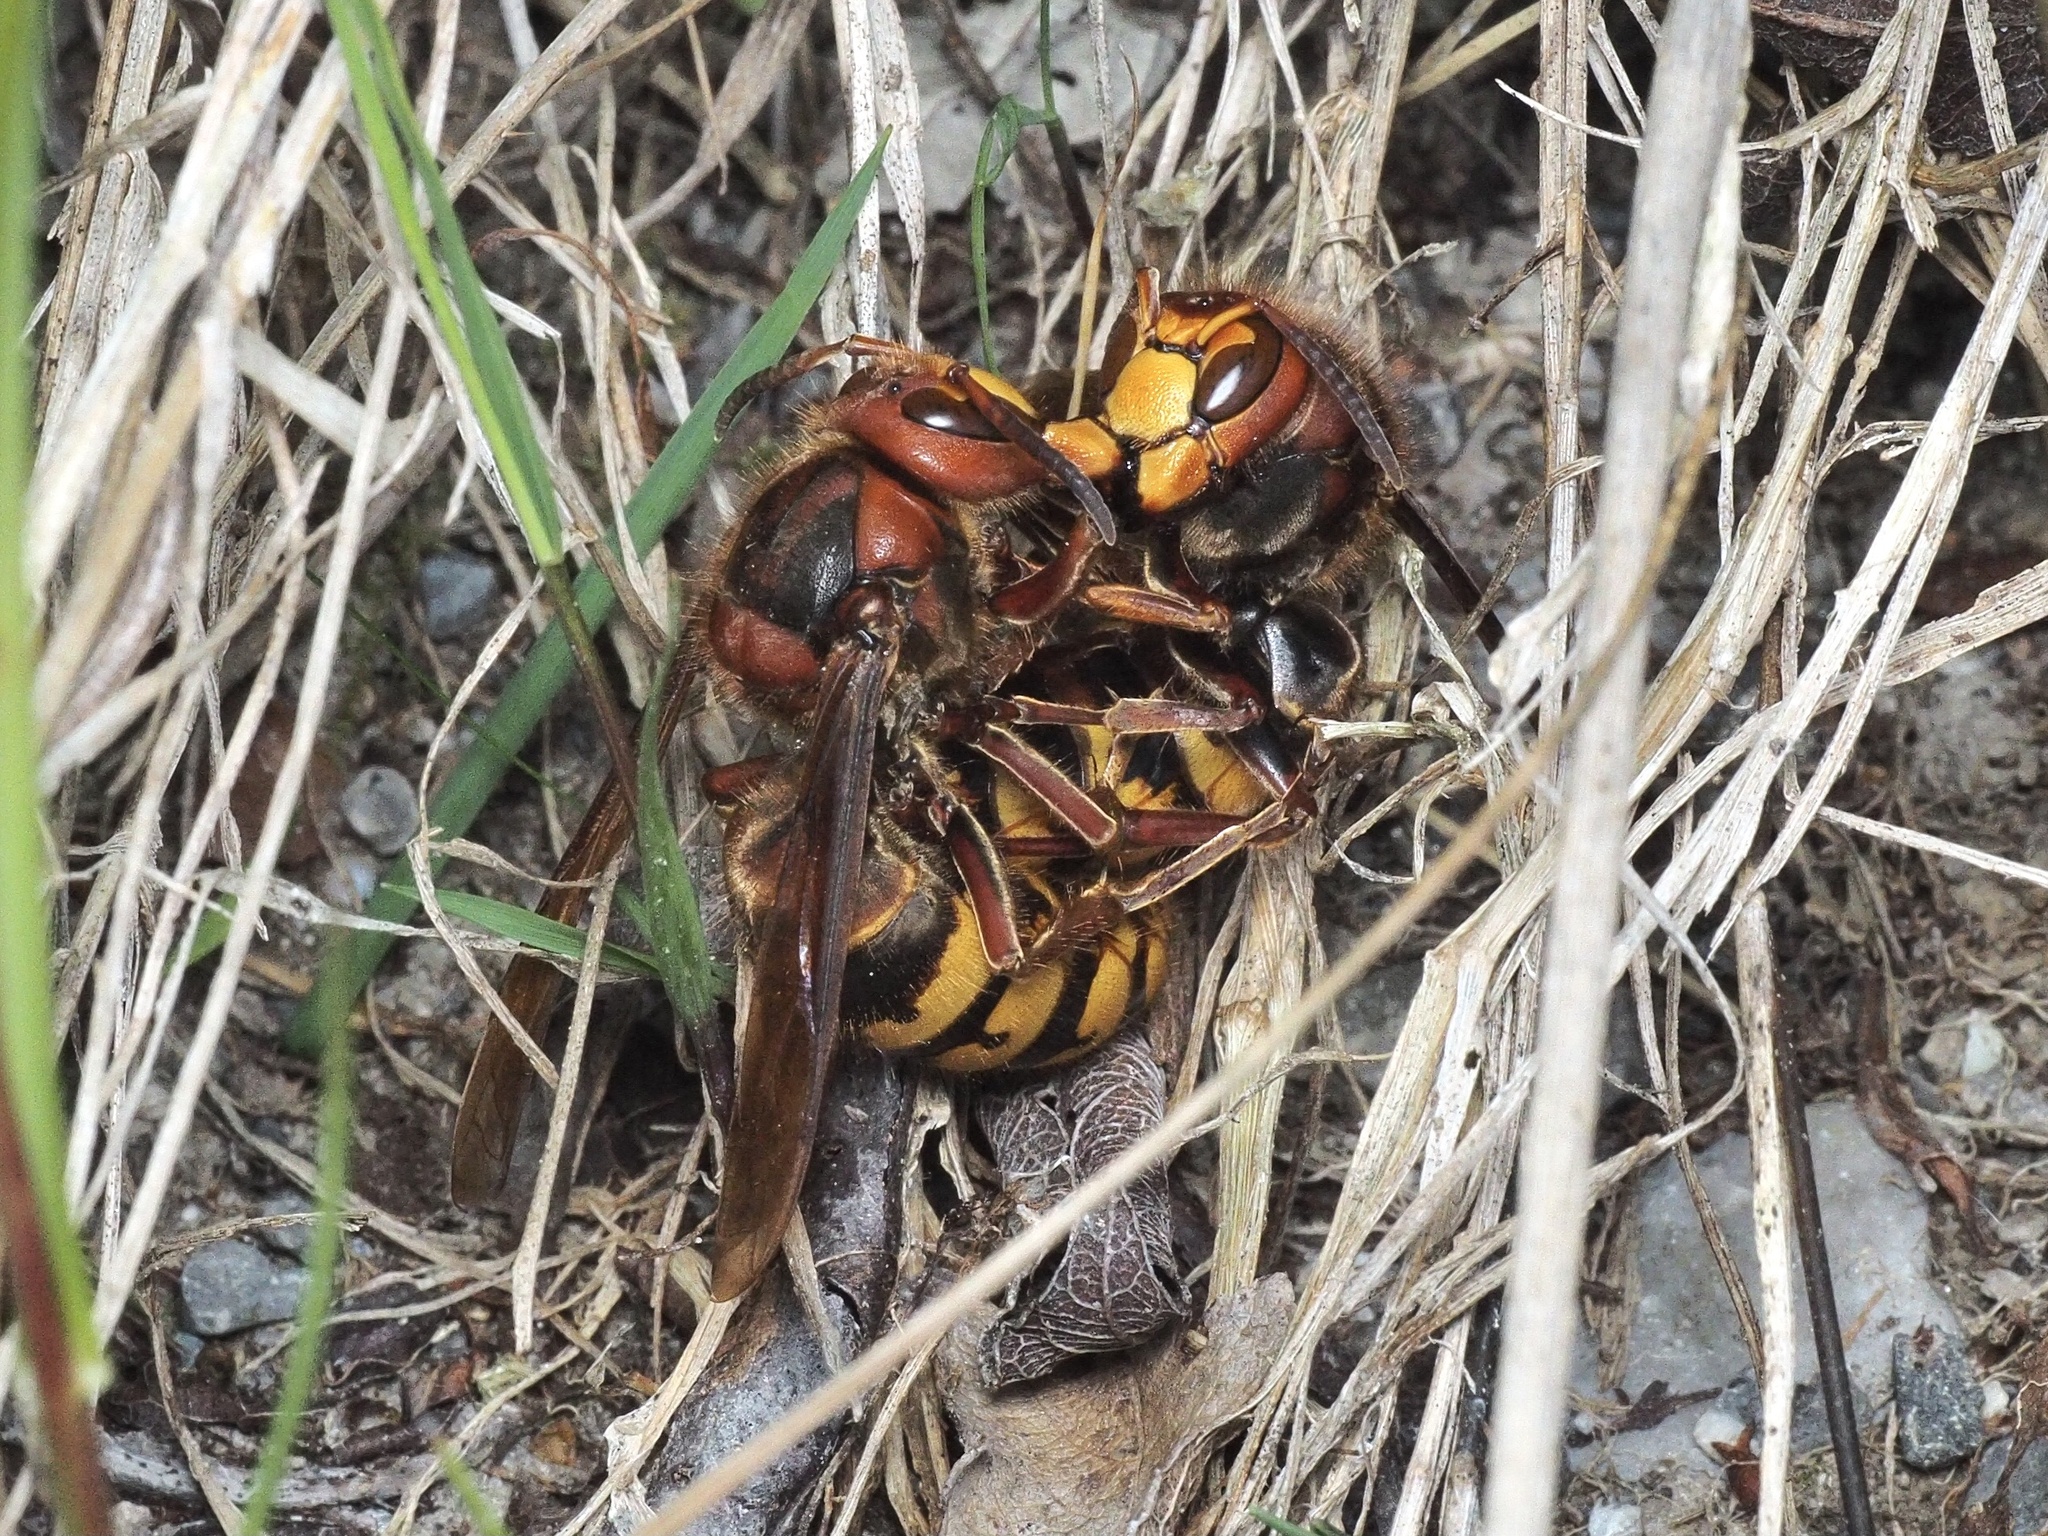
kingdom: Animalia
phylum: Arthropoda
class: Insecta
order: Hymenoptera
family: Vespidae
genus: Vespa
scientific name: Vespa crabro
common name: Hornet
